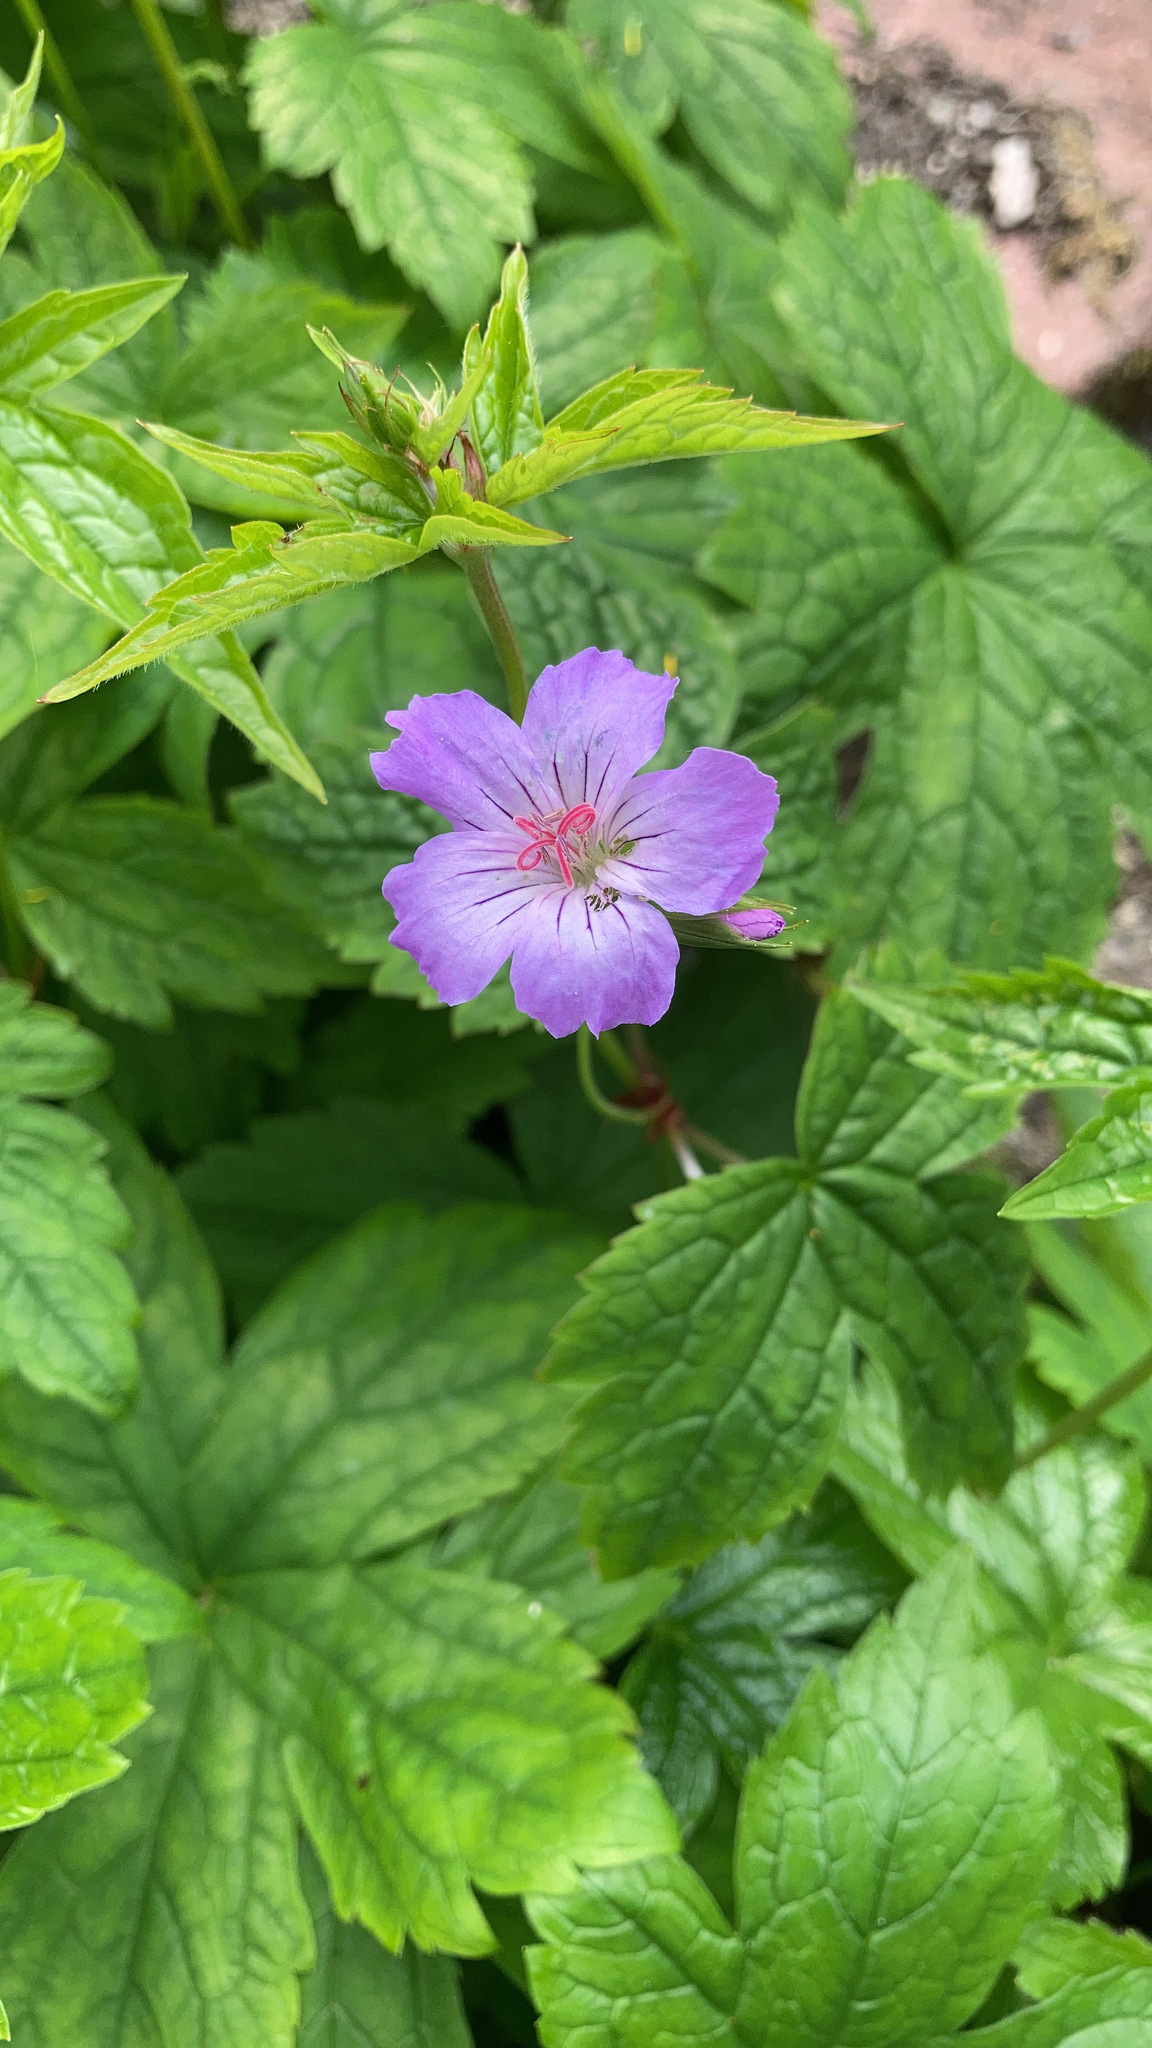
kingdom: Plantae
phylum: Tracheophyta
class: Magnoliopsida
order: Geraniales
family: Geraniaceae
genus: Geranium
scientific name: Geranium nodosum
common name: Knotted crane's-bill
